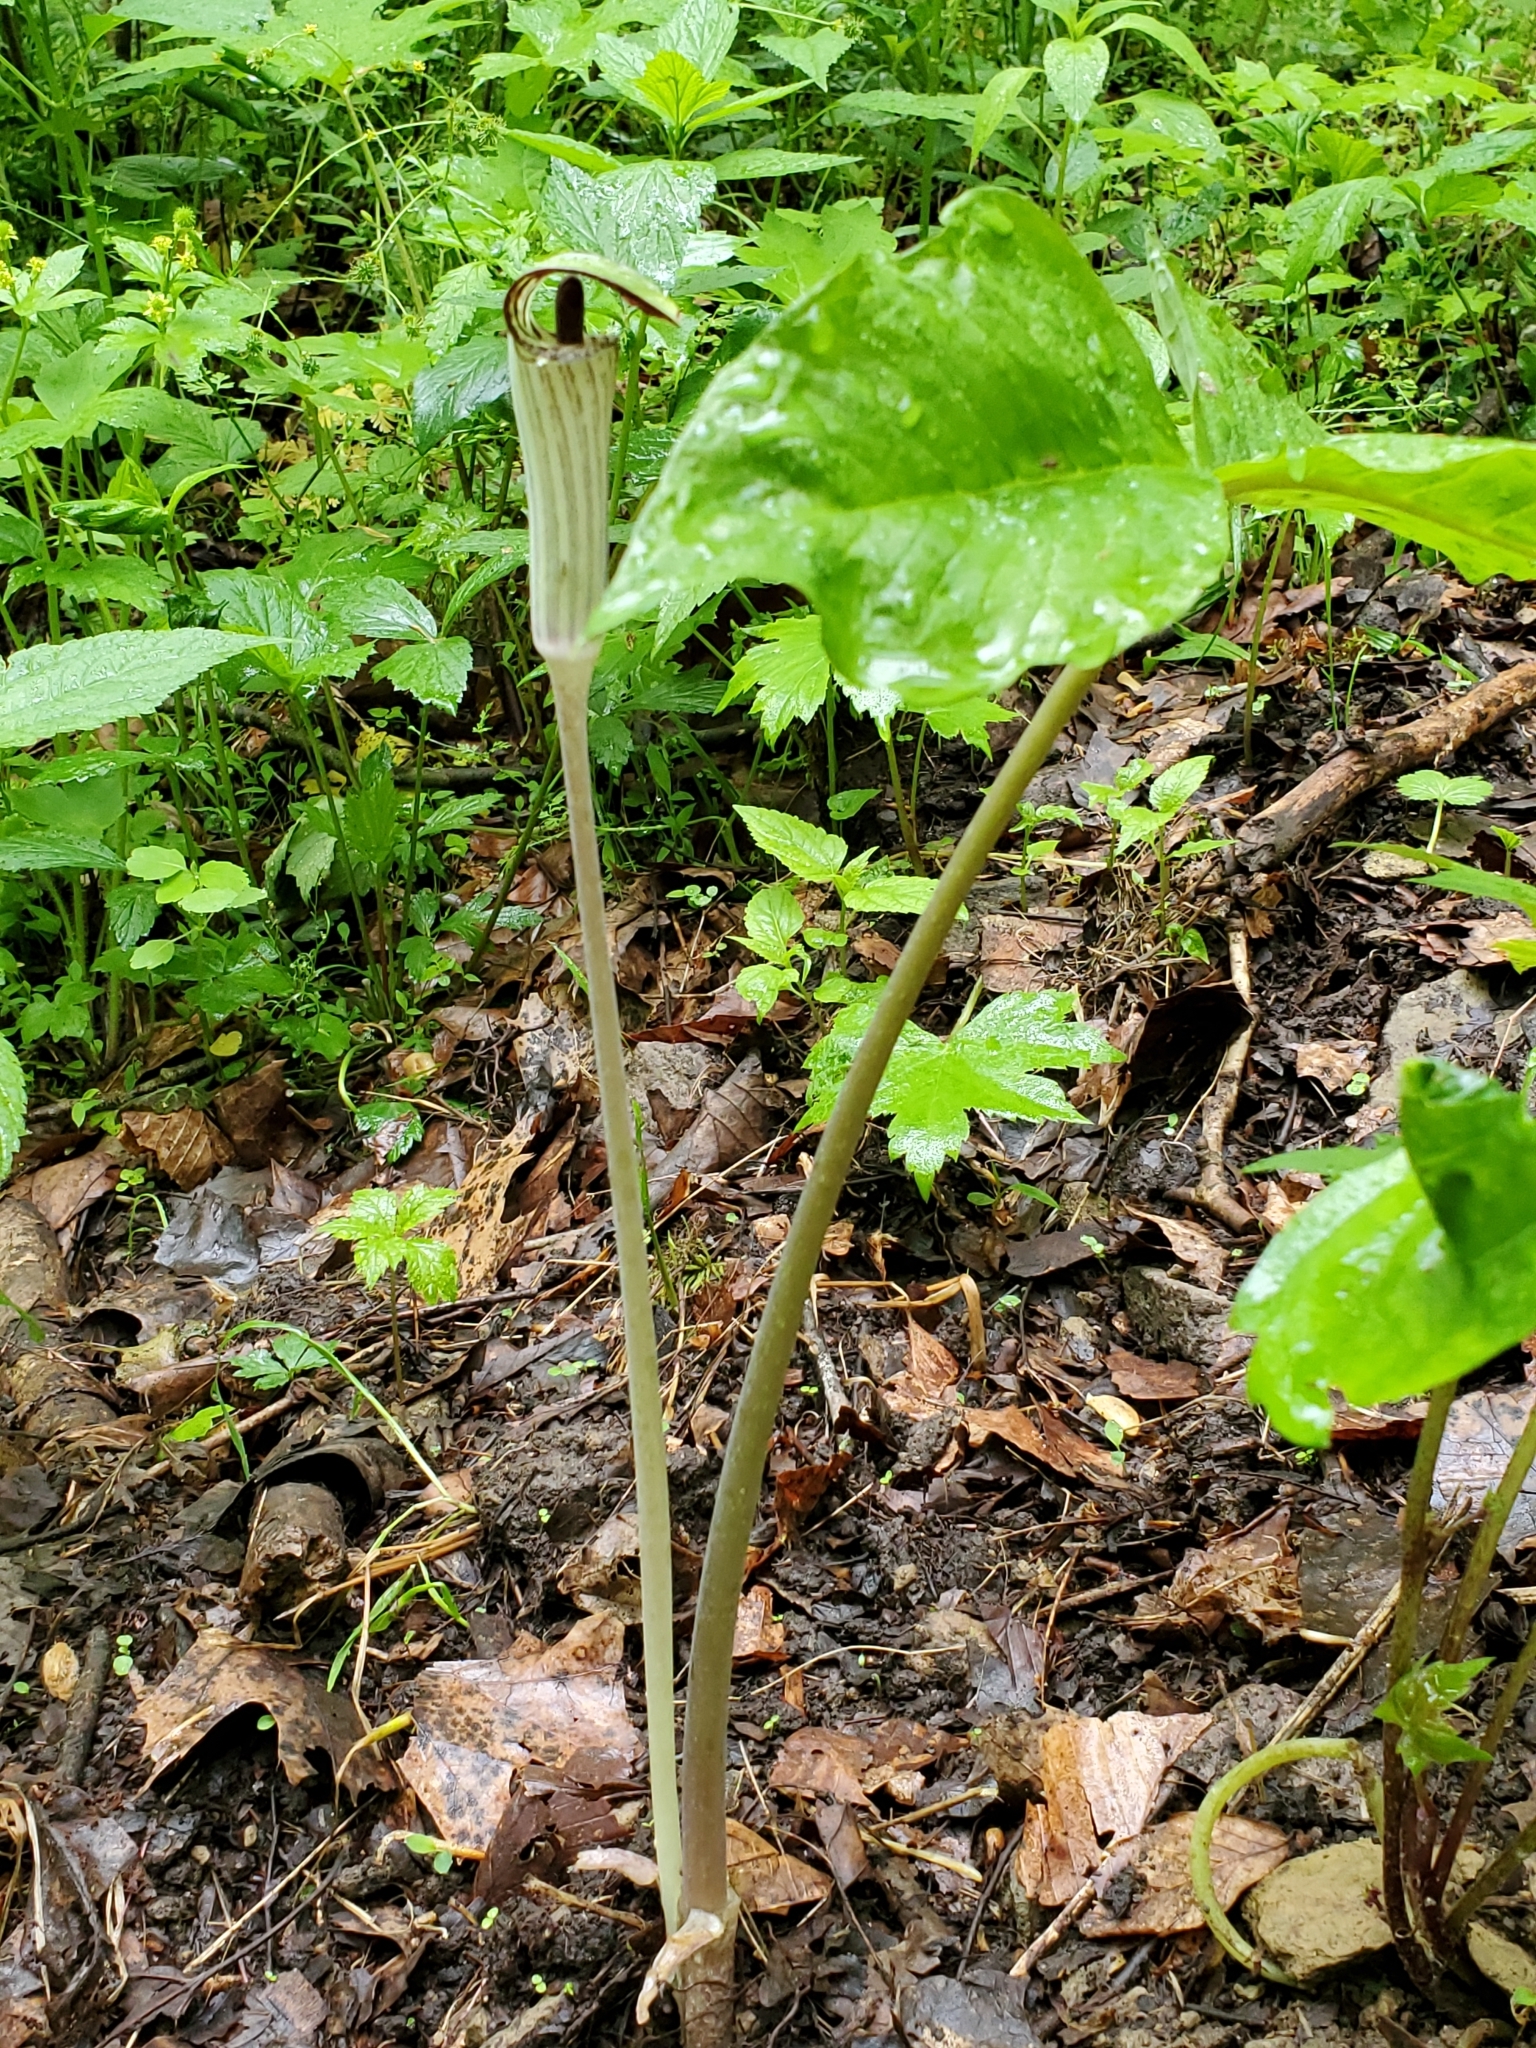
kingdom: Plantae
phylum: Tracheophyta
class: Liliopsida
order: Alismatales
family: Araceae
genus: Arisaema
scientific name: Arisaema triphyllum
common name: Jack-in-the-pulpit
